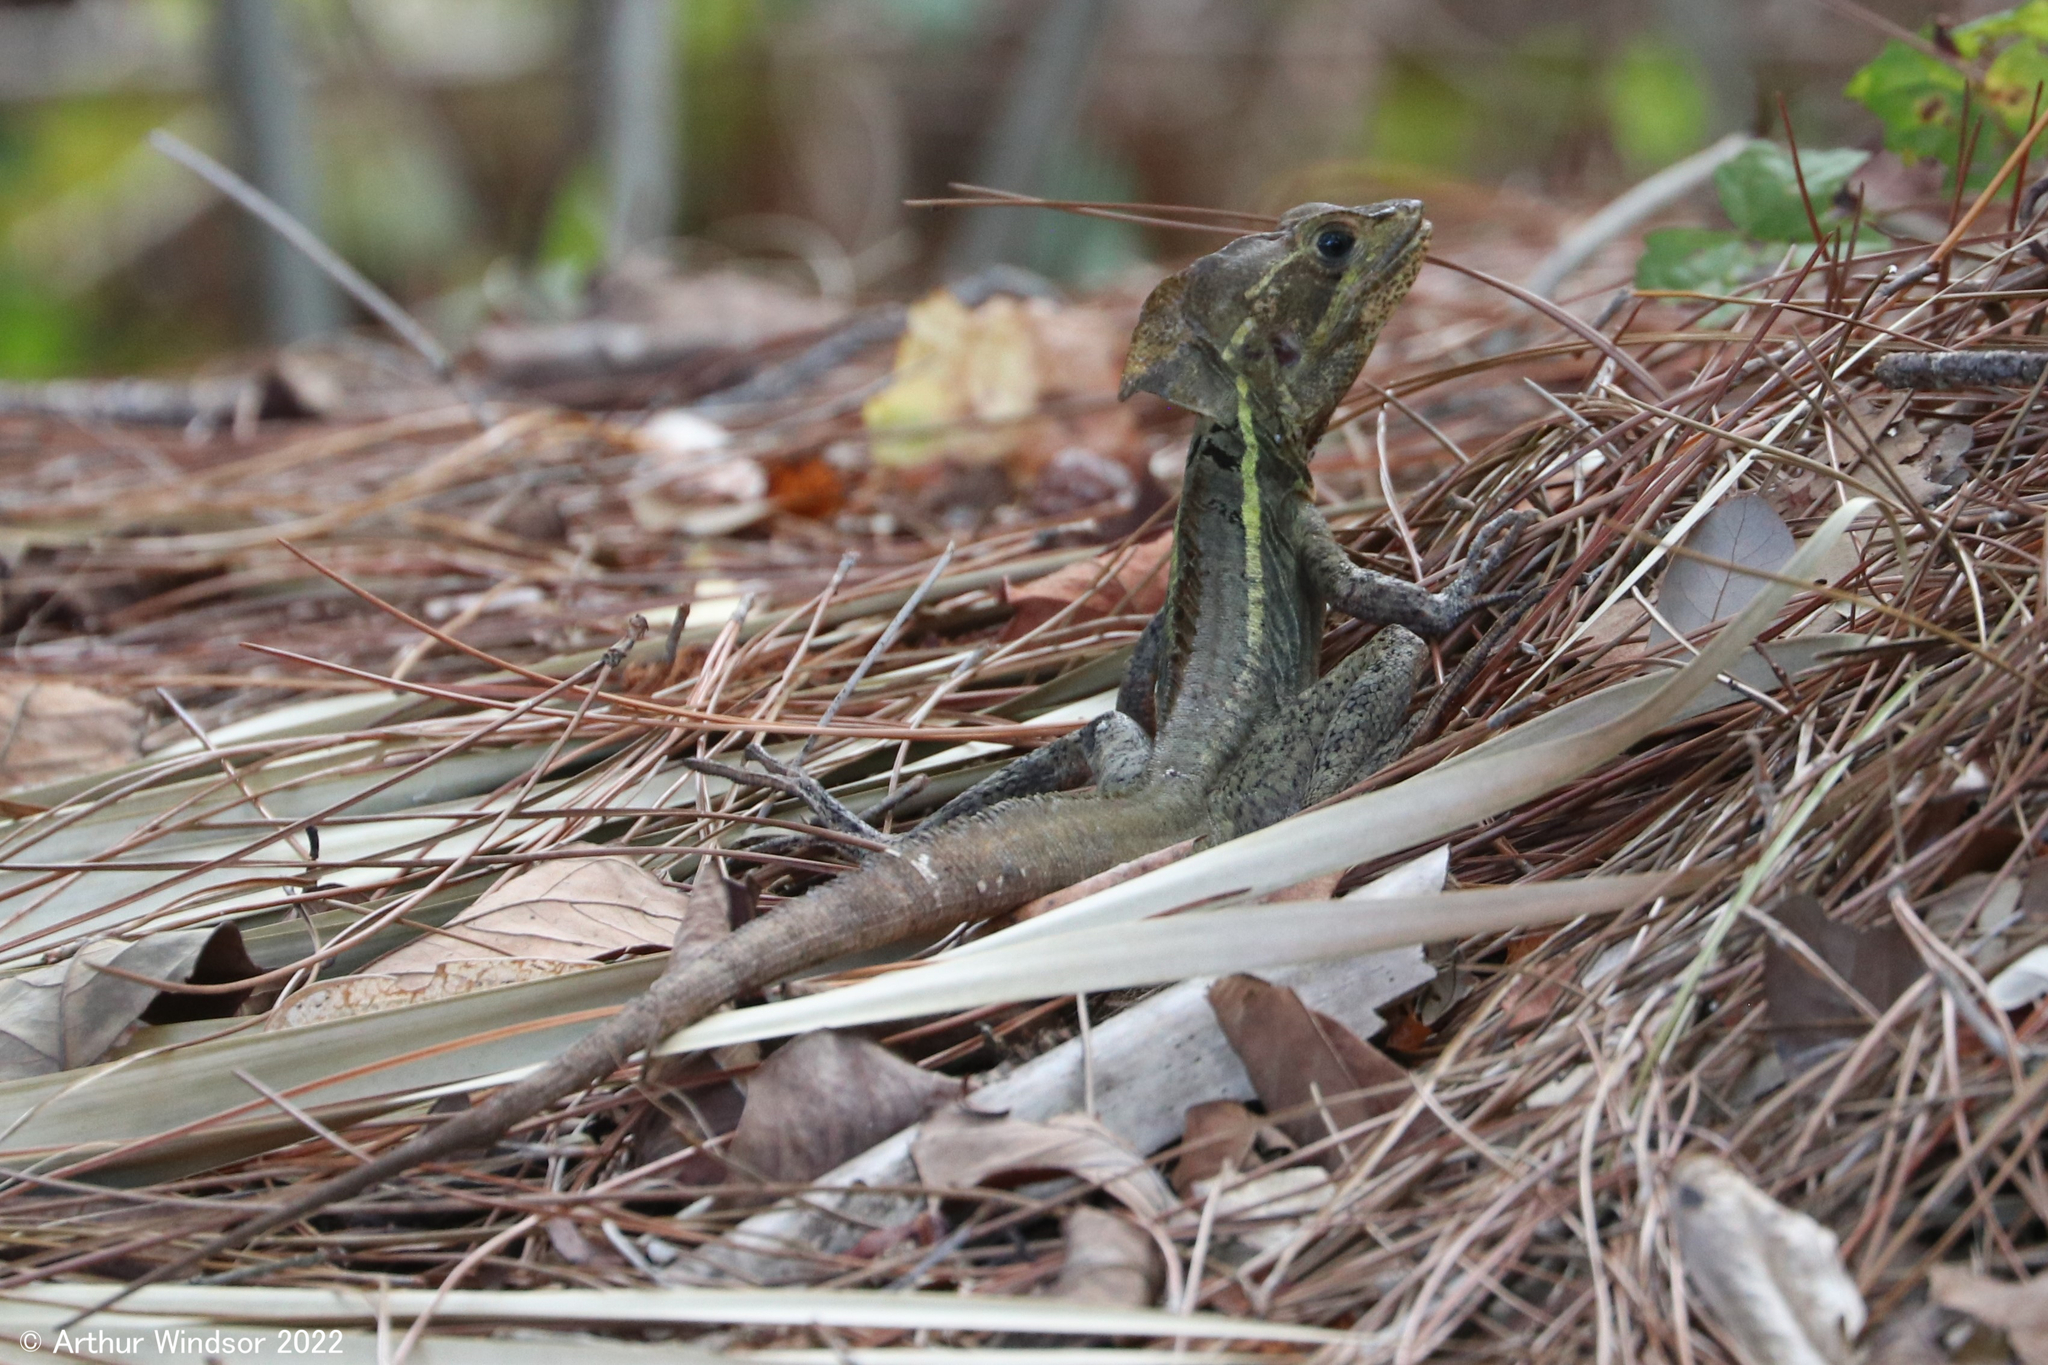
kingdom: Animalia
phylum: Chordata
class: Squamata
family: Corytophanidae
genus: Basiliscus
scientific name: Basiliscus vittatus
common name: Brown basilisk
